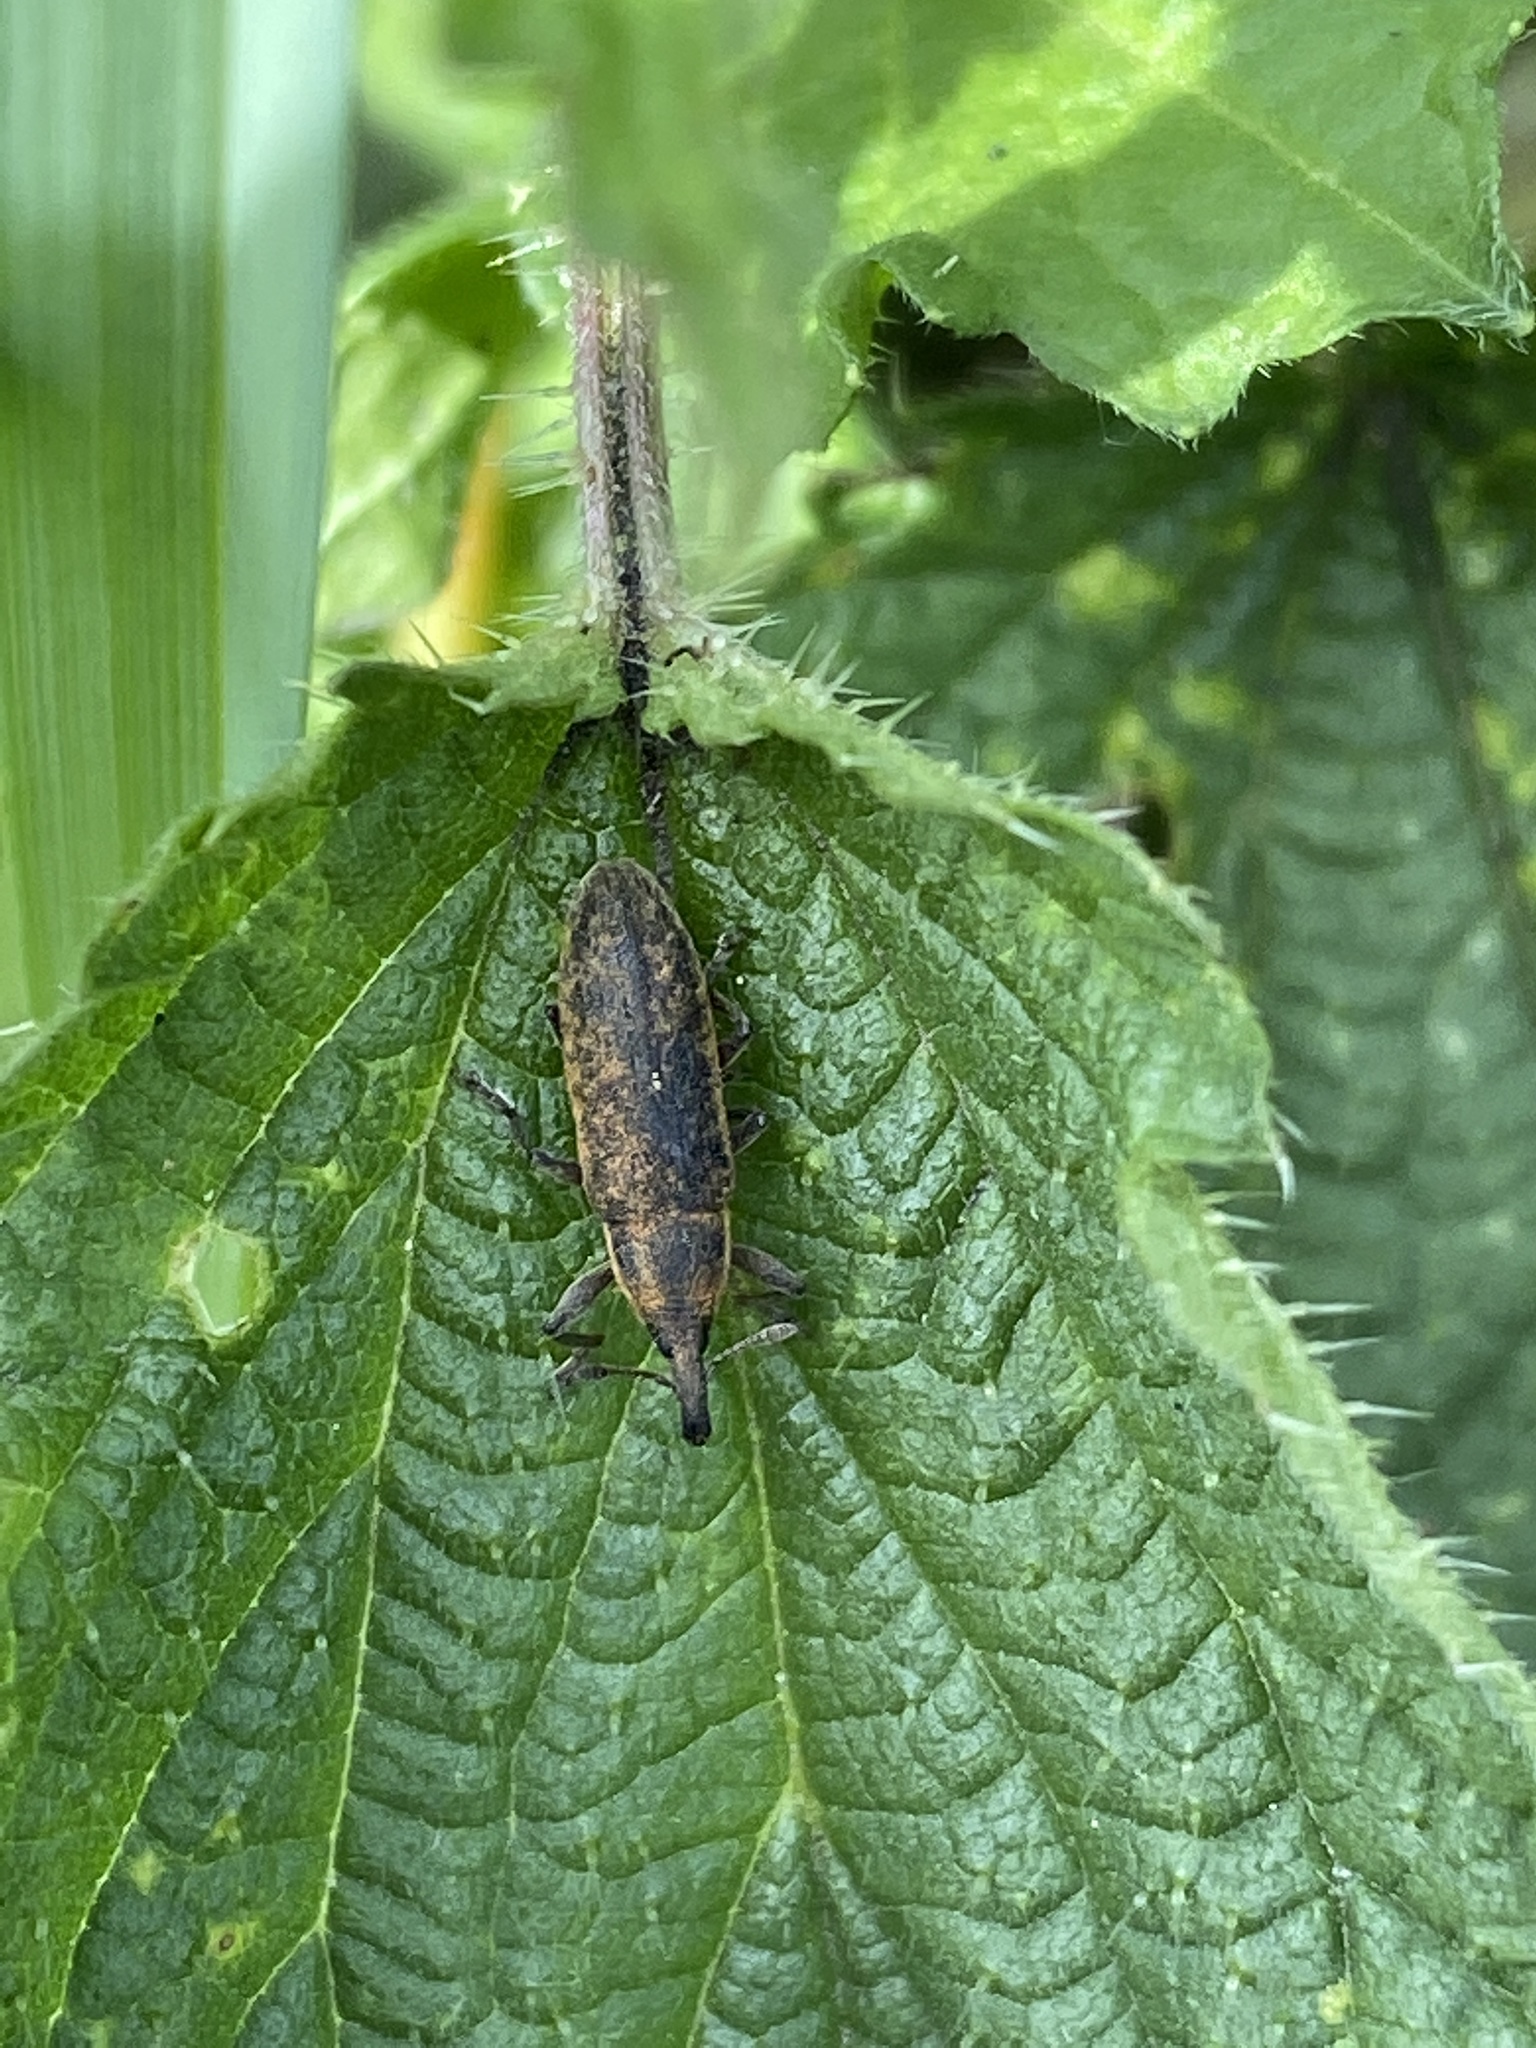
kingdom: Animalia
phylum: Arthropoda
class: Insecta
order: Coleoptera
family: Curculionidae
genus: Lixus
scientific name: Lixus filiformis
